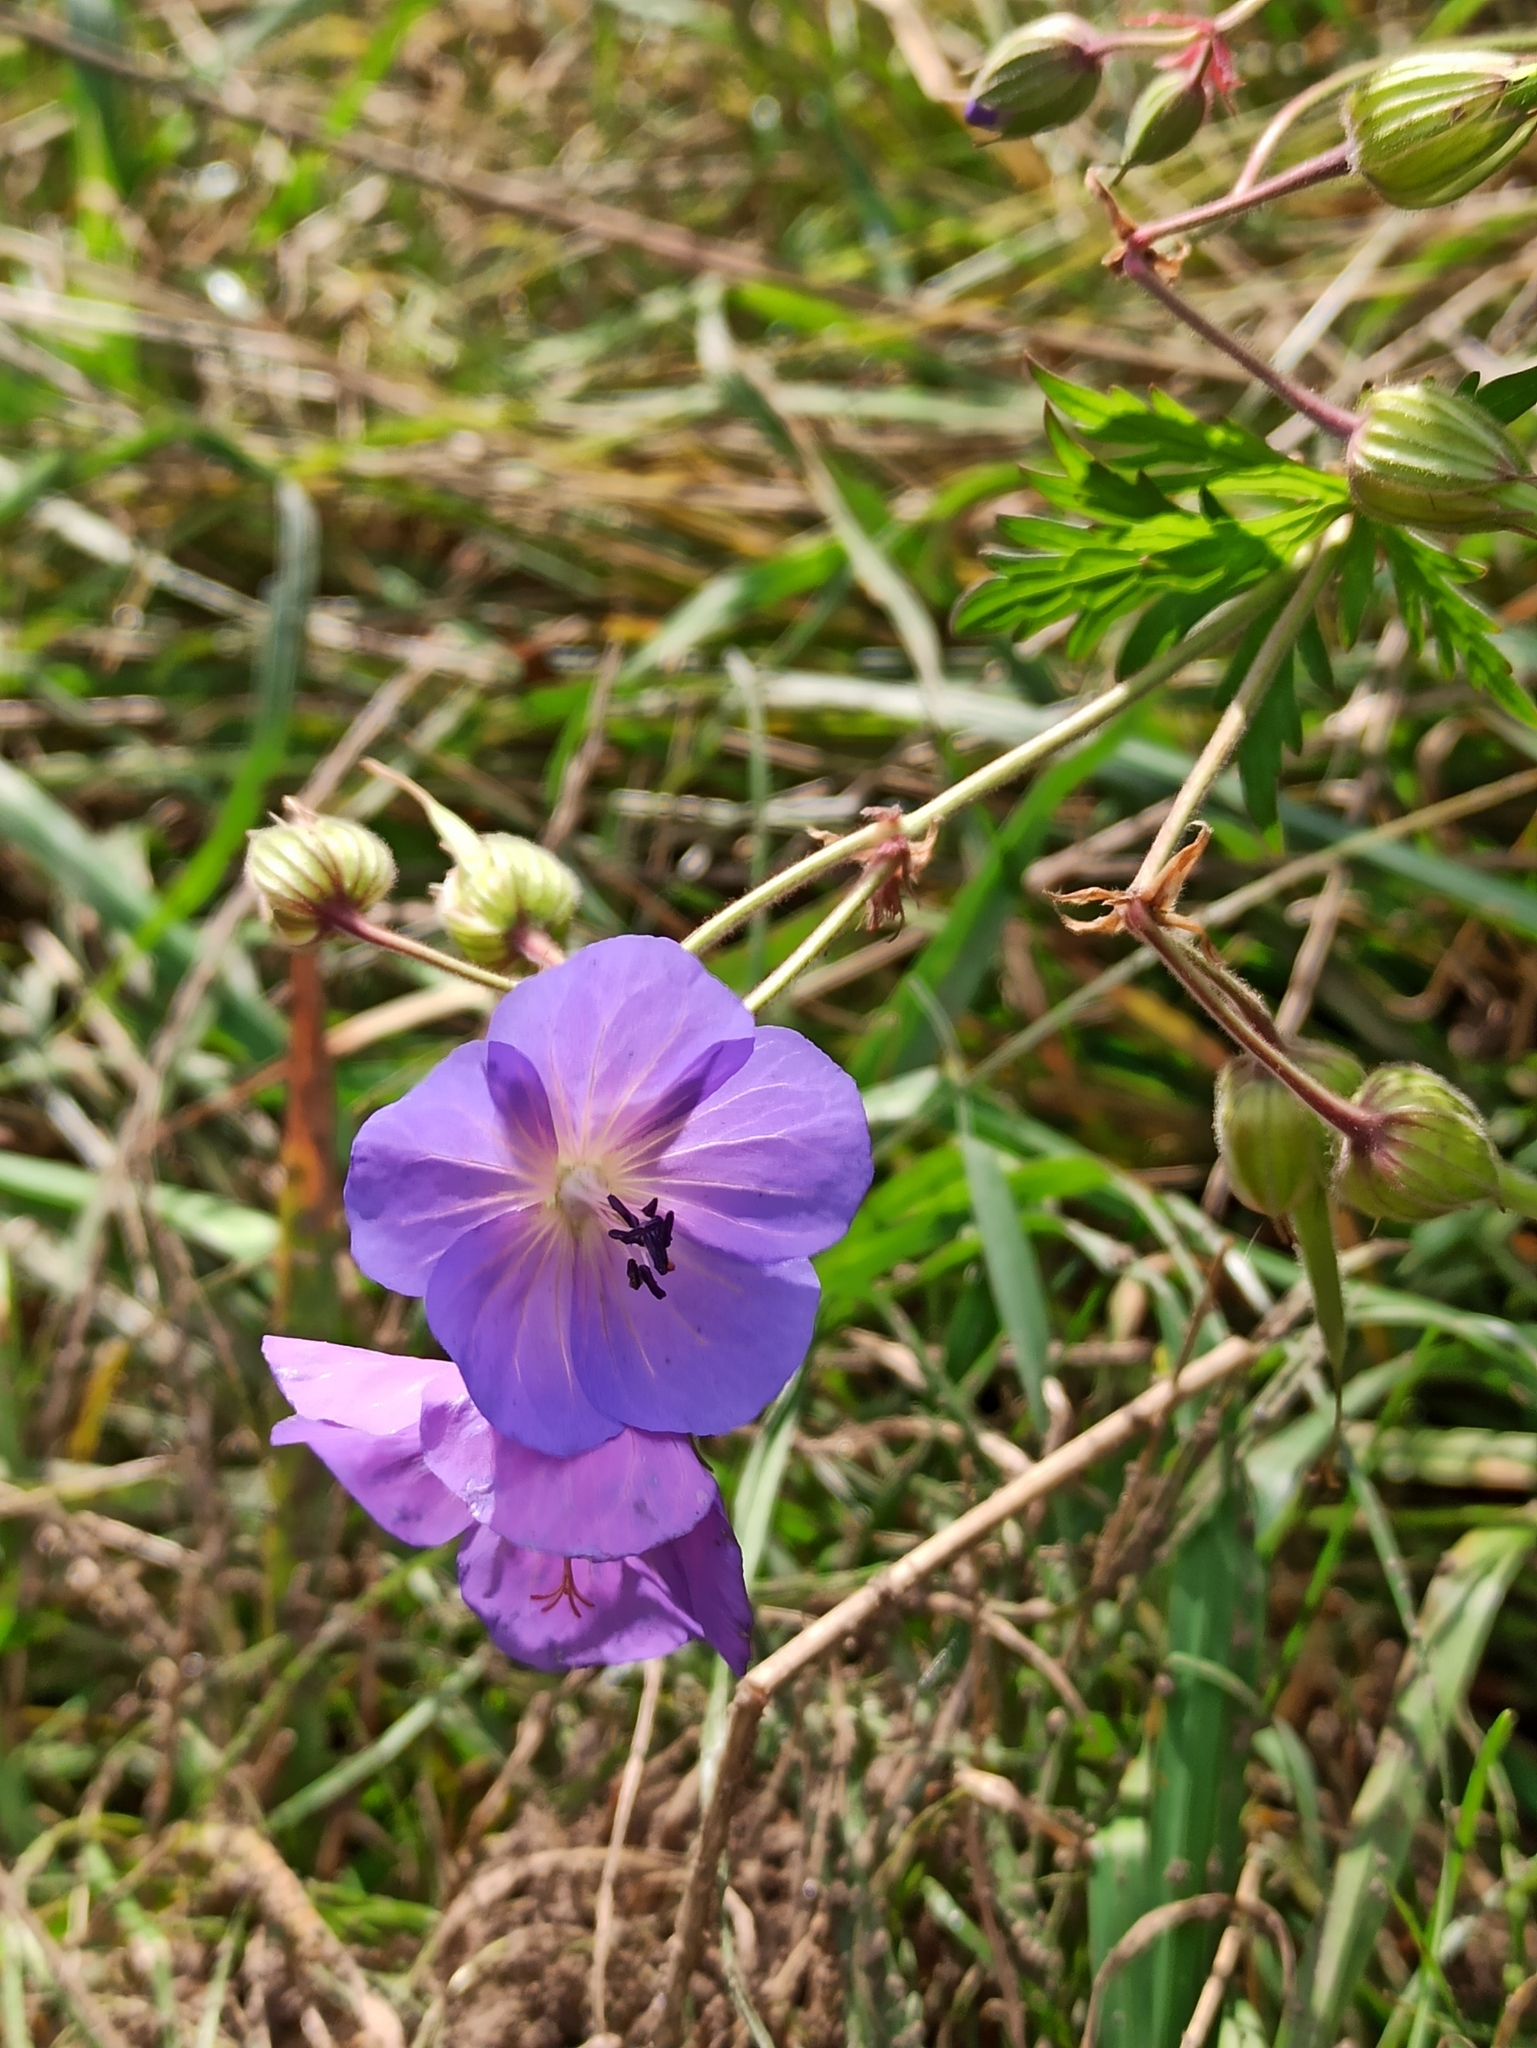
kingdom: Plantae
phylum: Tracheophyta
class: Magnoliopsida
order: Geraniales
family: Geraniaceae
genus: Geranium
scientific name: Geranium pratense
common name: Meadow crane's-bill
